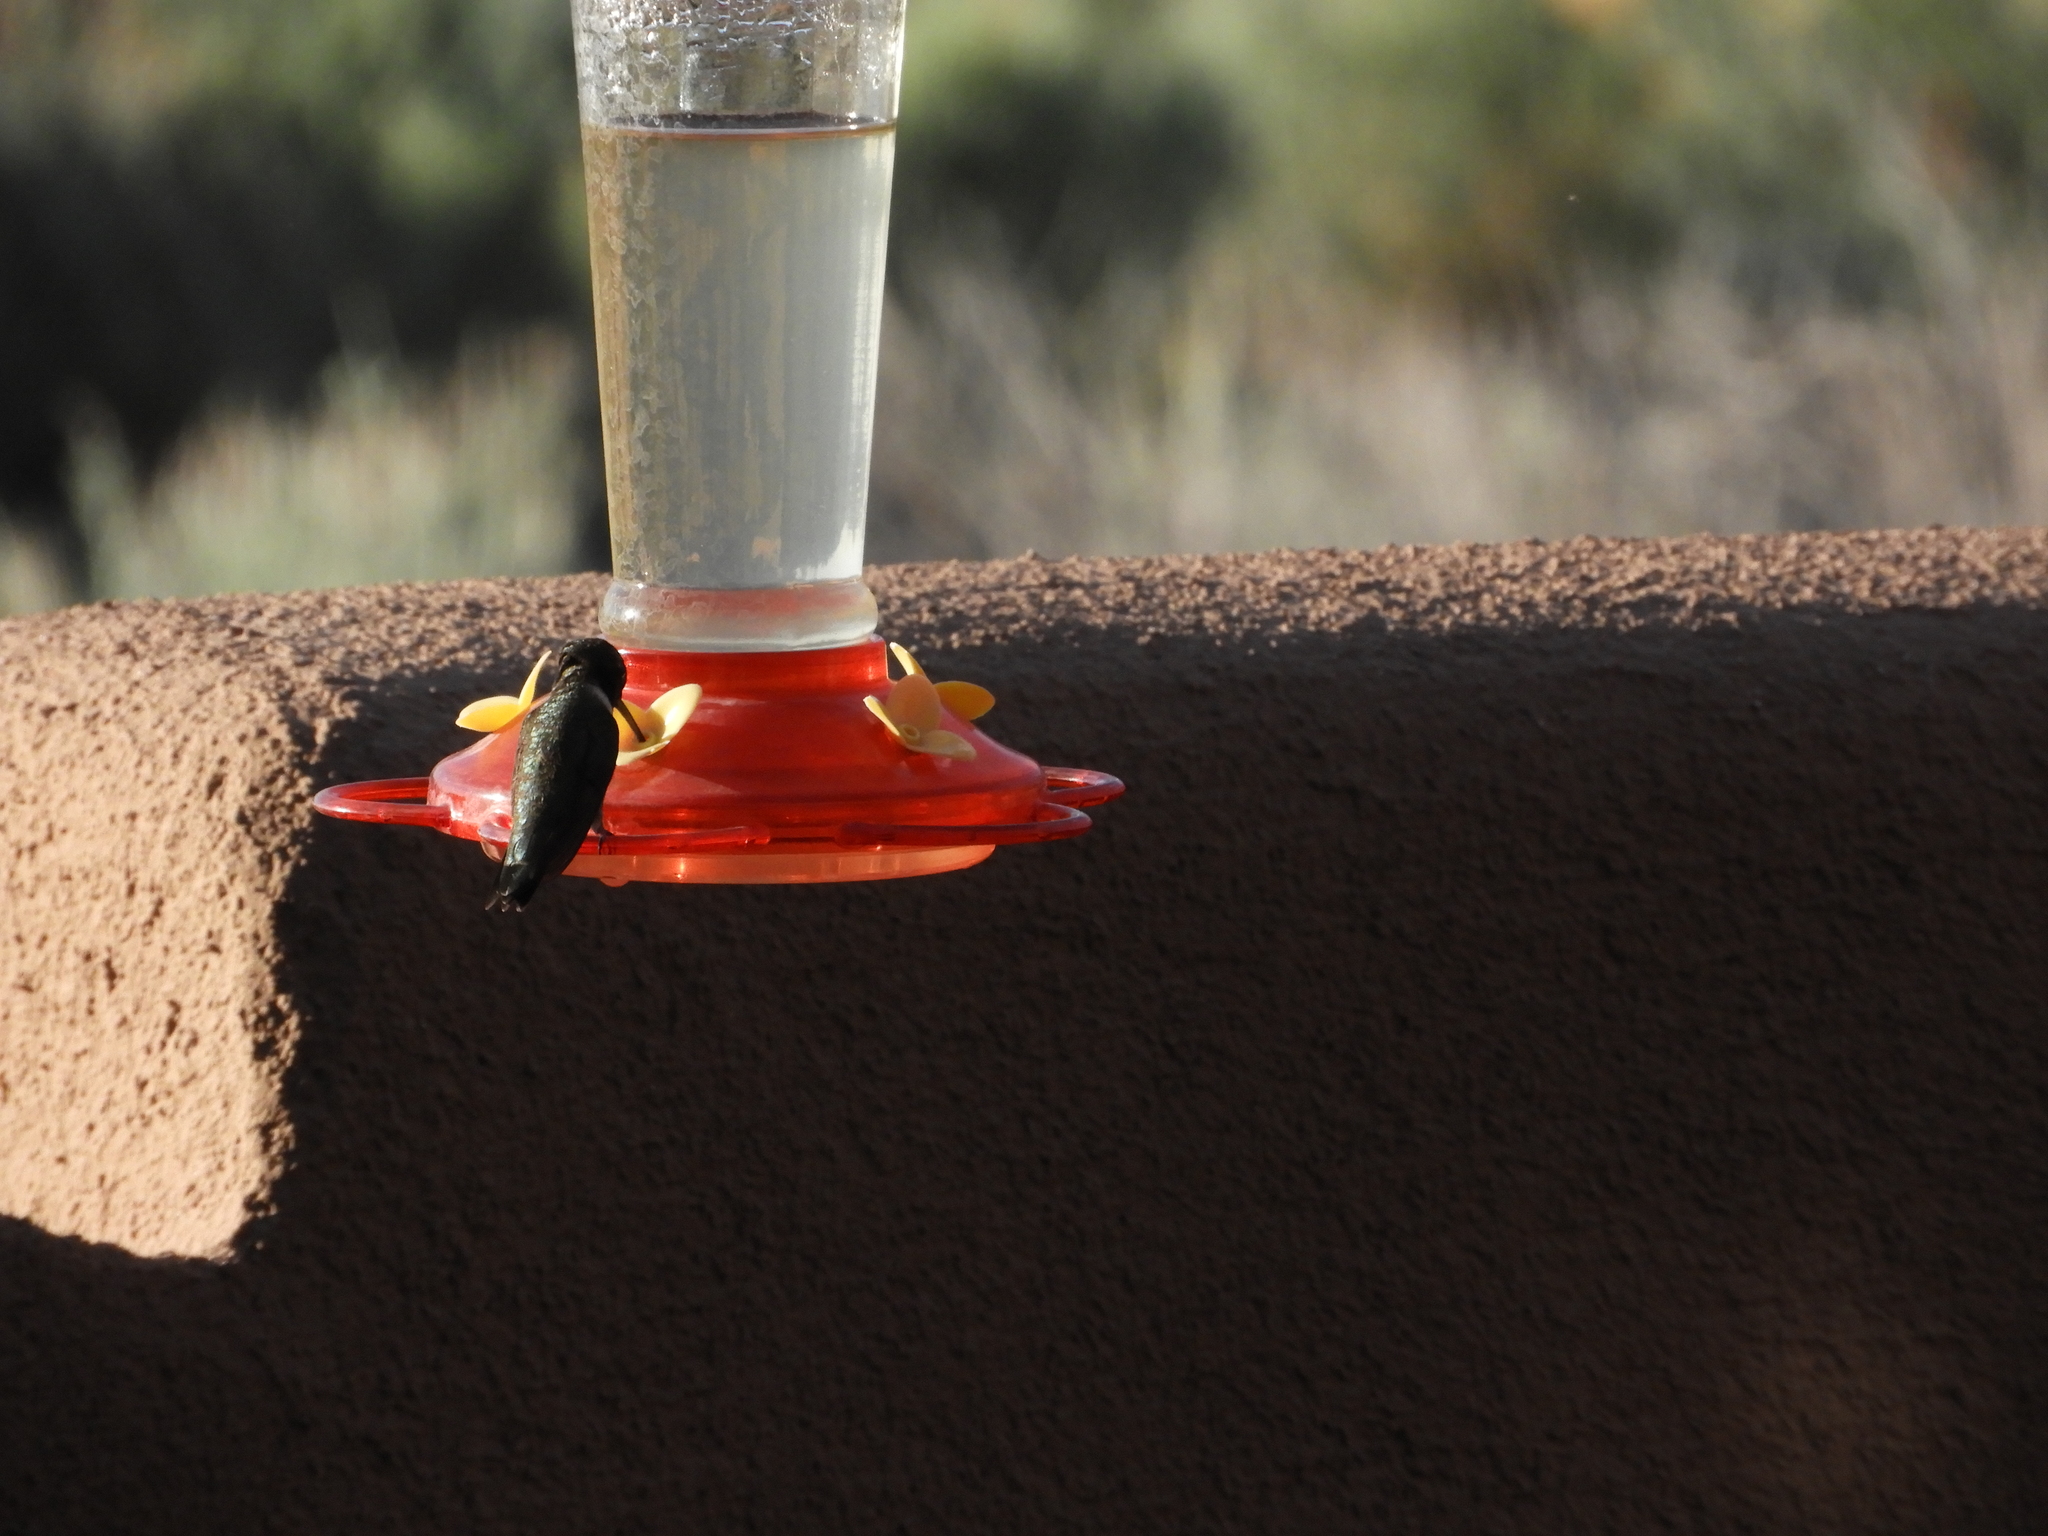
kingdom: Animalia
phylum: Chordata
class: Aves
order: Apodiformes
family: Trochilidae
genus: Archilochus
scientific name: Archilochus alexandri
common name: Black-chinned hummingbird
